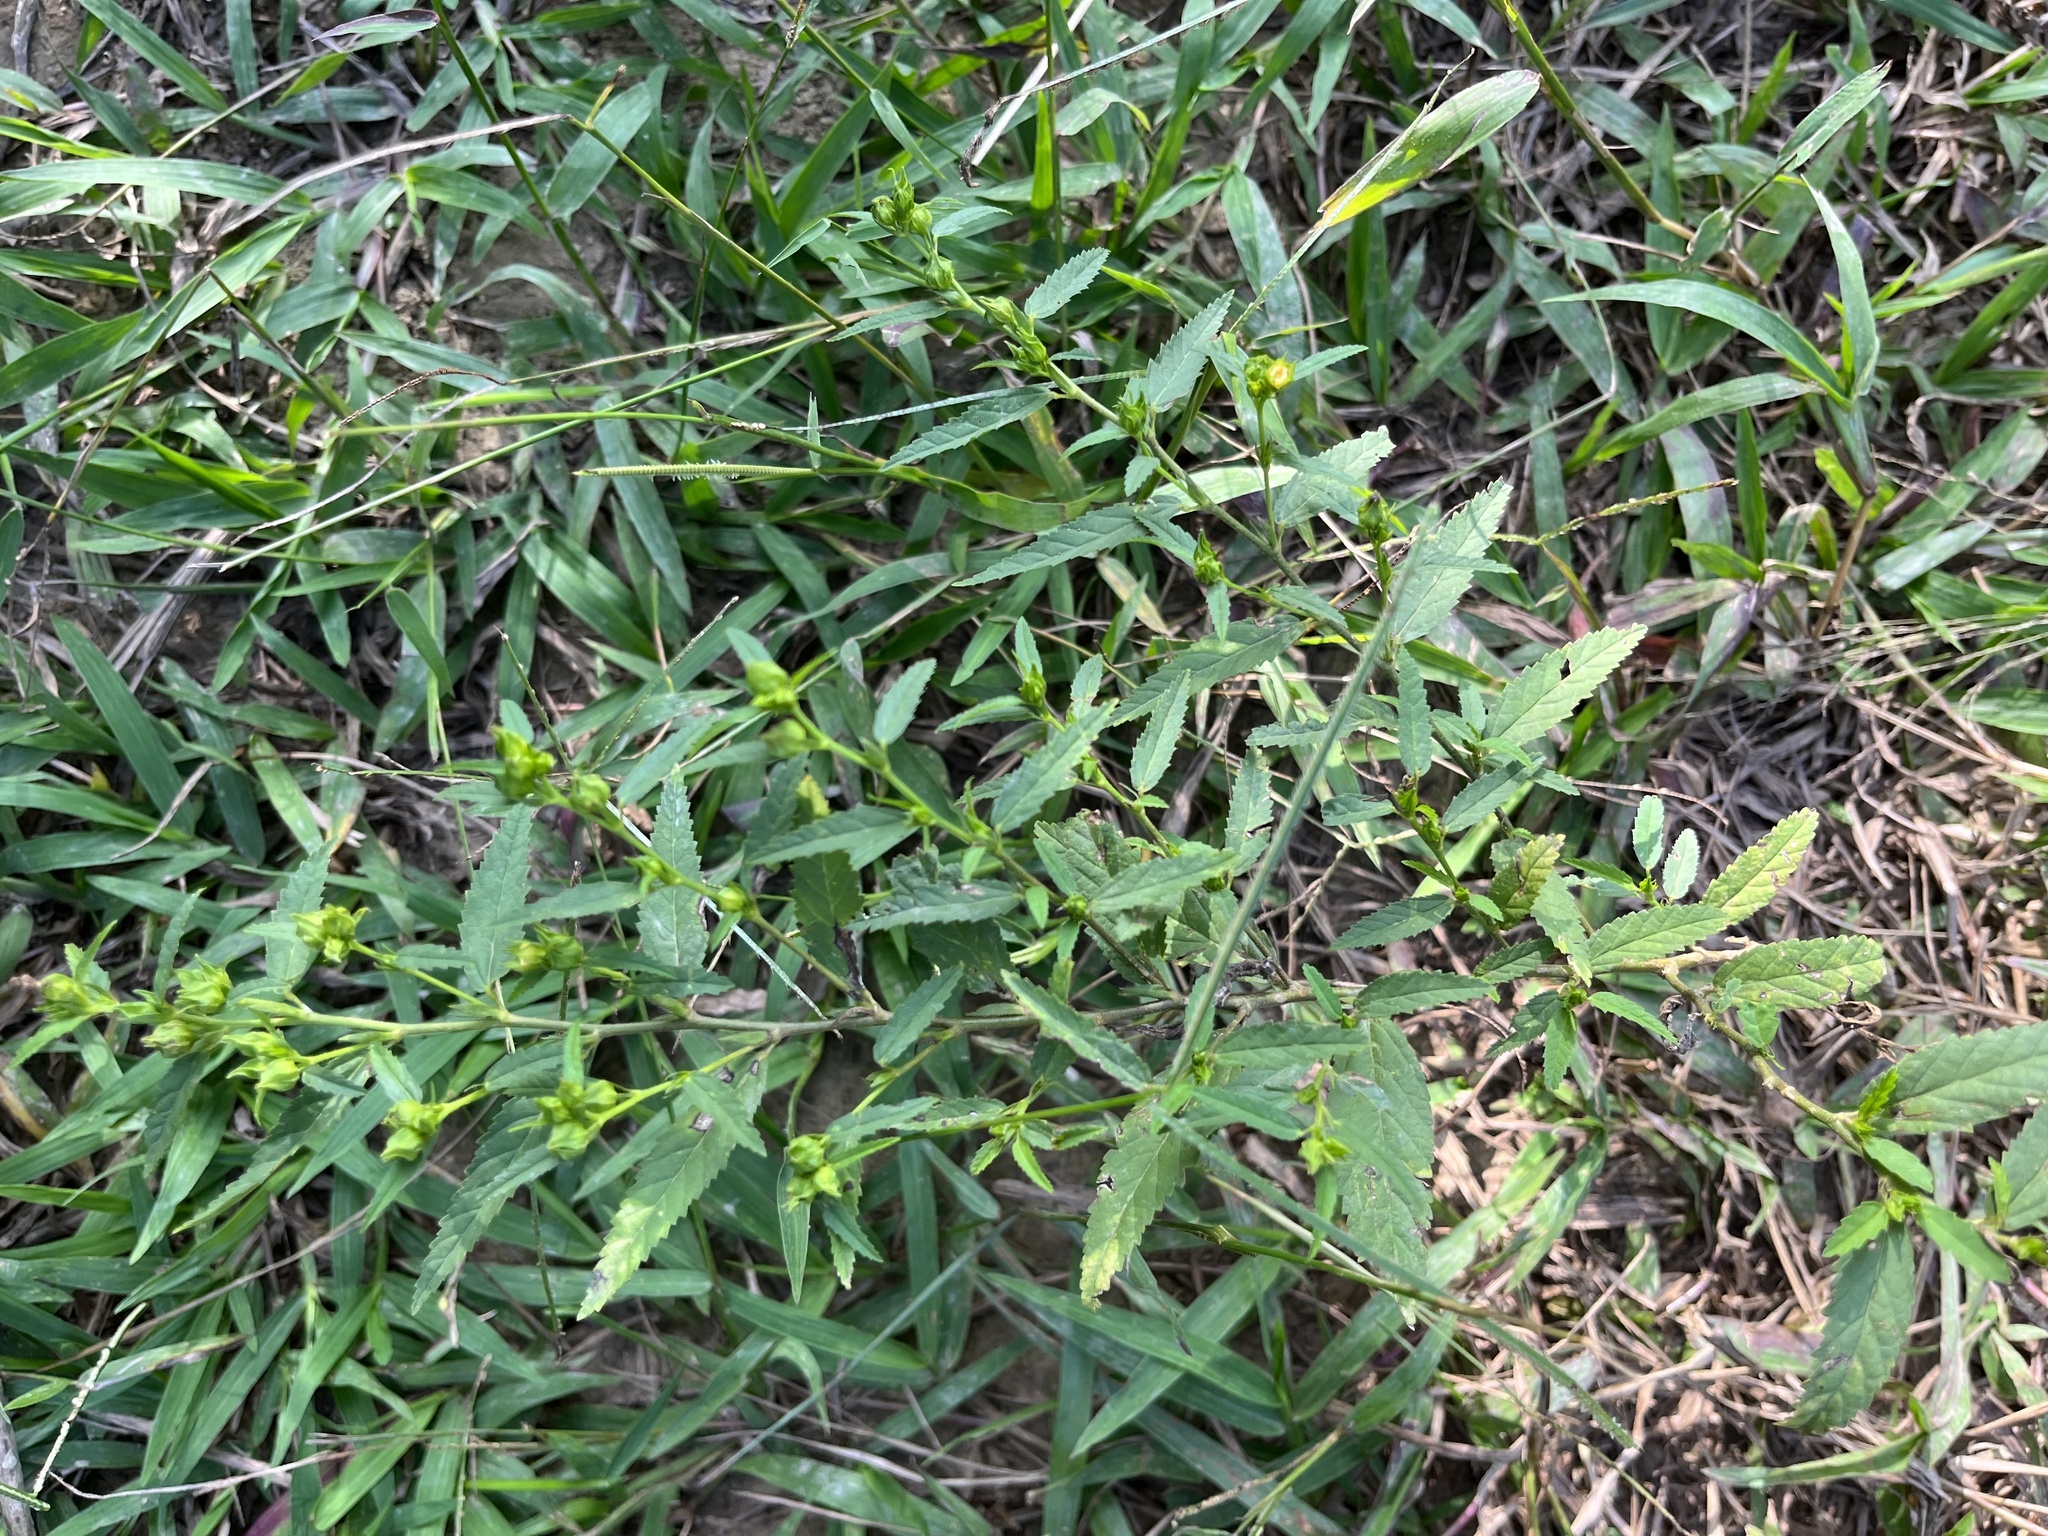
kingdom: Plantae
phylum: Tracheophyta
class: Magnoliopsida
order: Malvales
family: Malvaceae
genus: Sida
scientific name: Sida acuta
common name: Common wireweed
